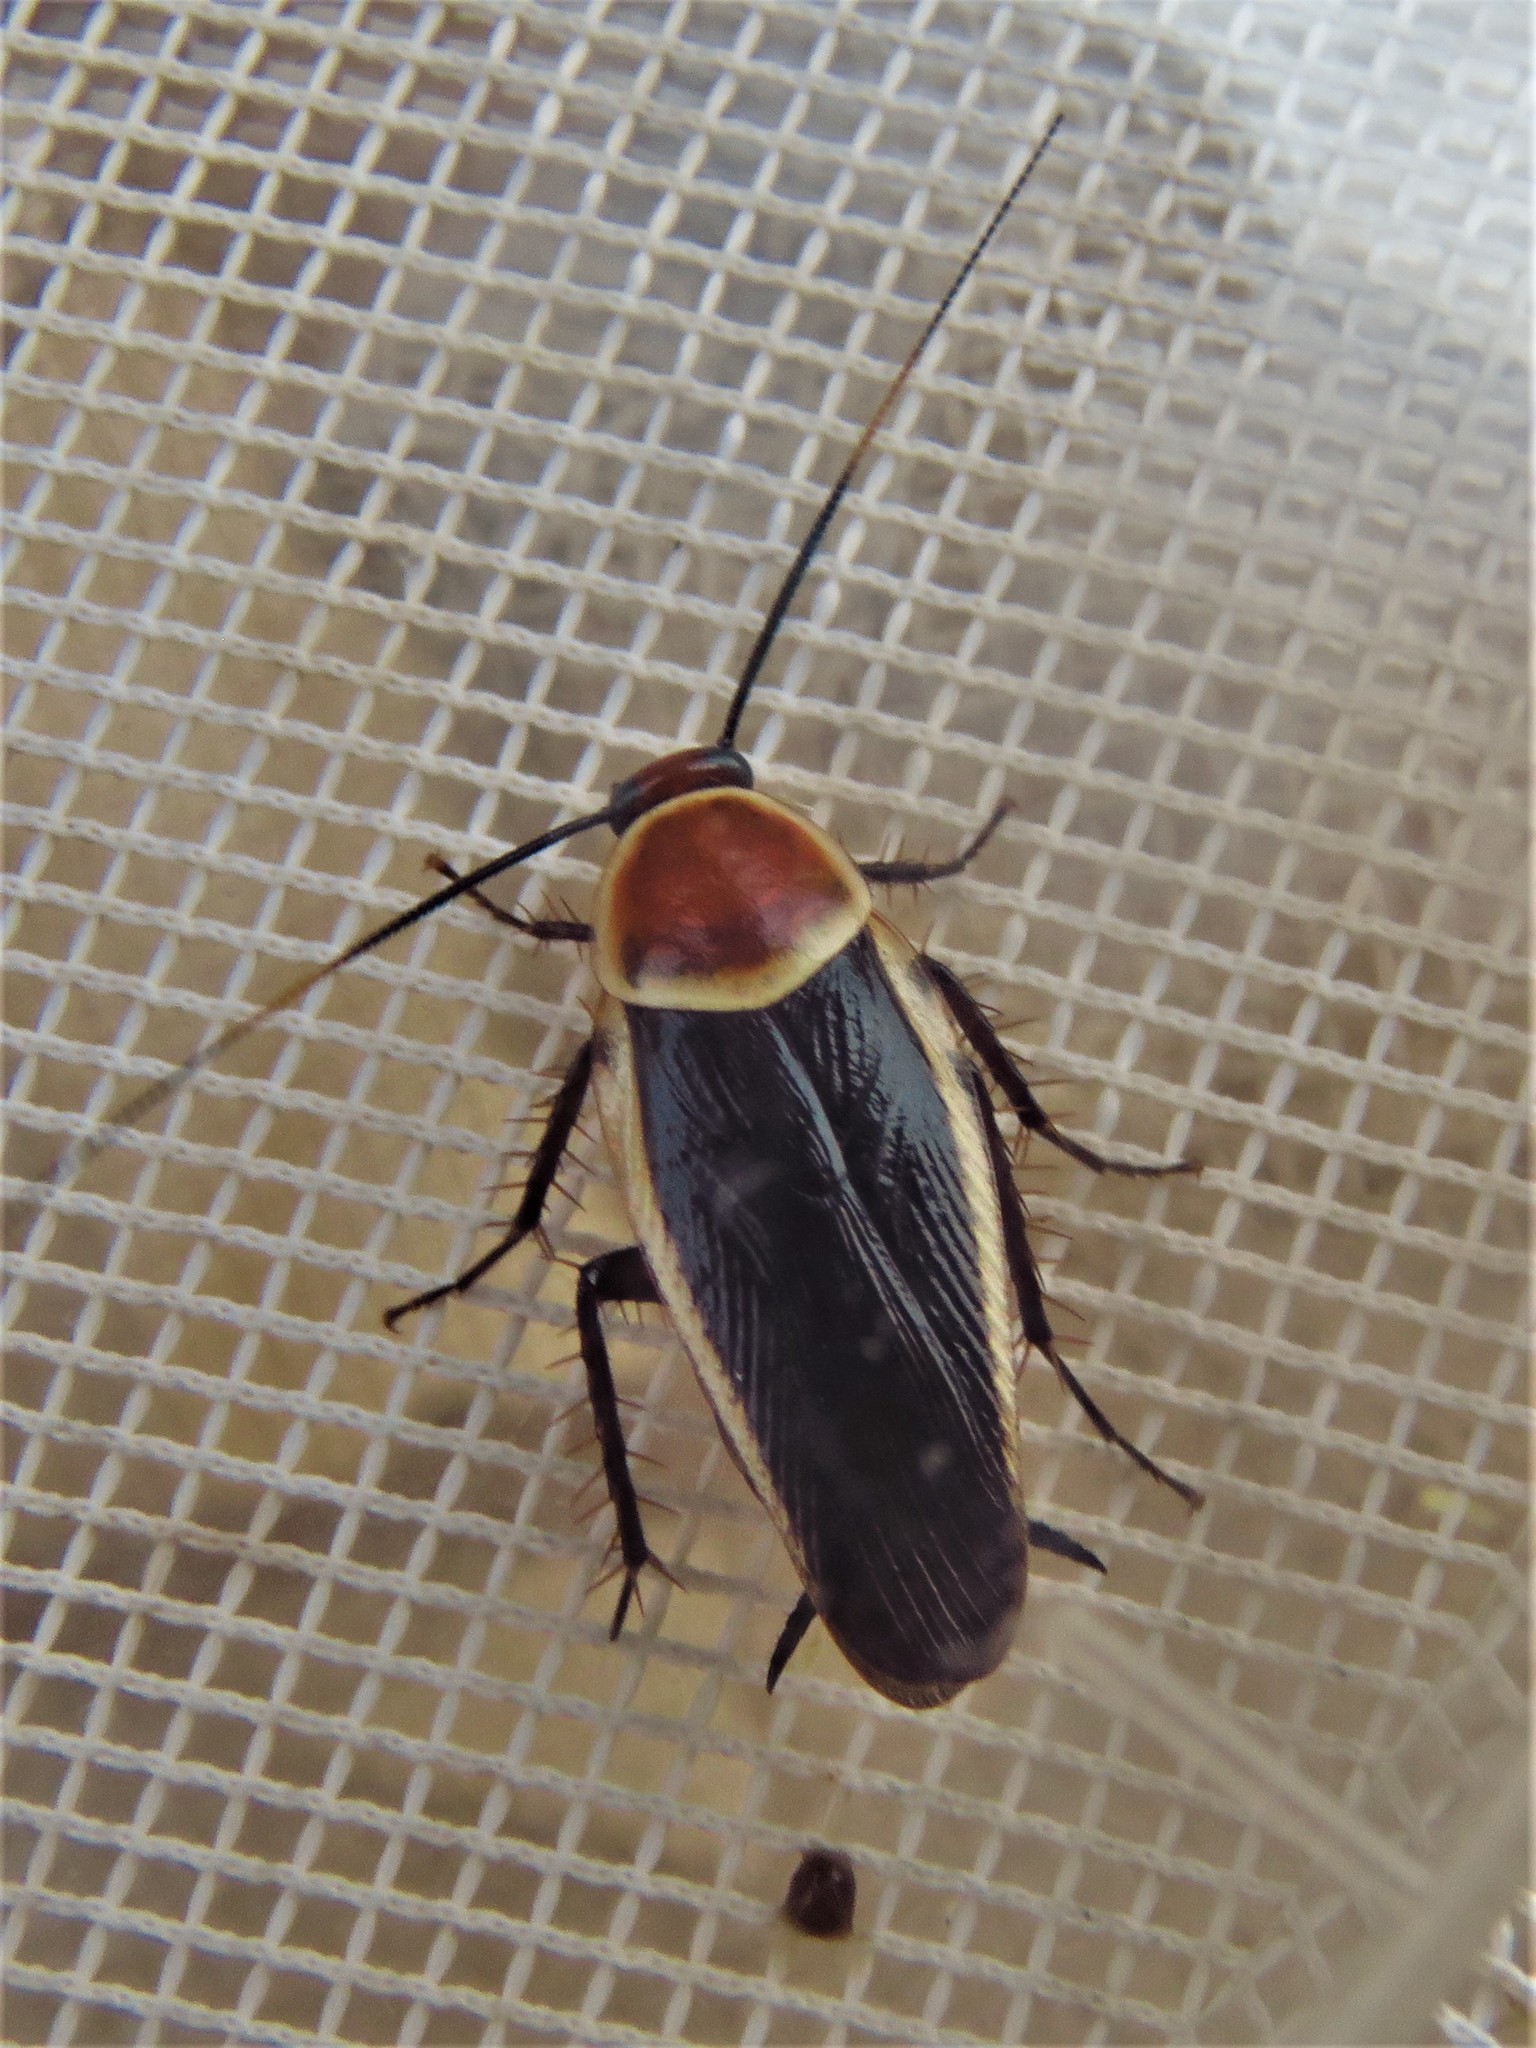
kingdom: Animalia
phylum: Arthropoda
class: Insecta
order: Blattodea
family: Ectobiidae
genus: Pseudomops
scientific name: Pseudomops septentrionalis
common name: Pale-bordered field cockroach
